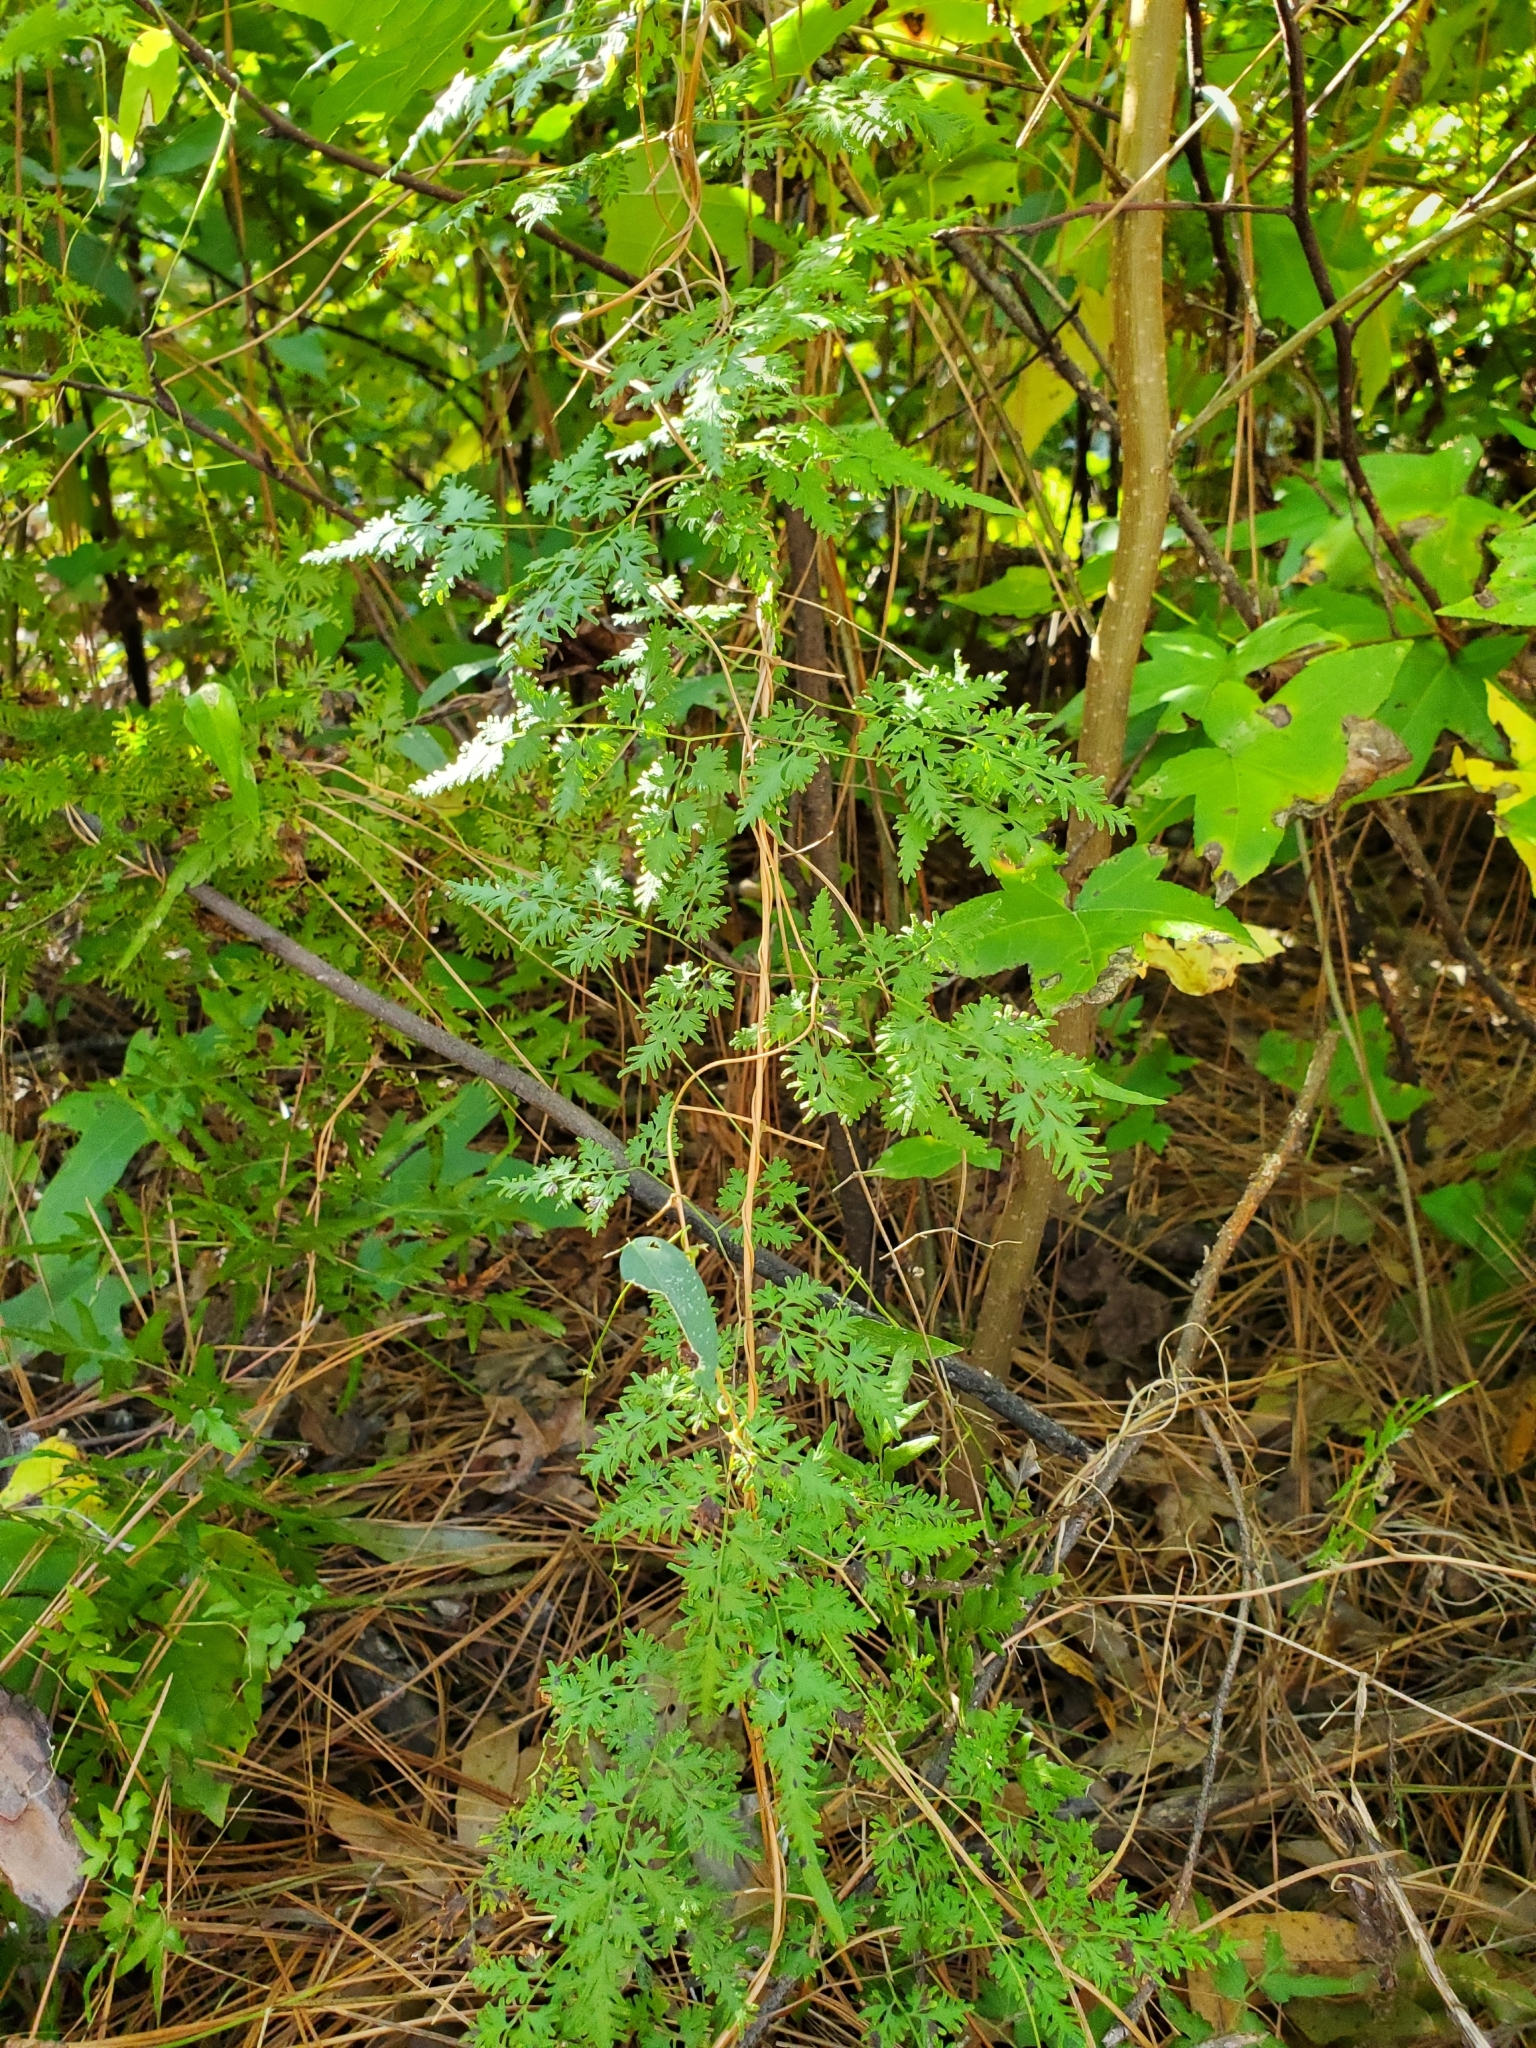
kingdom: Plantae
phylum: Tracheophyta
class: Polypodiopsida
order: Schizaeales
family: Lygodiaceae
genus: Lygodium
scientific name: Lygodium japonicum
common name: Japanese climbing fern
